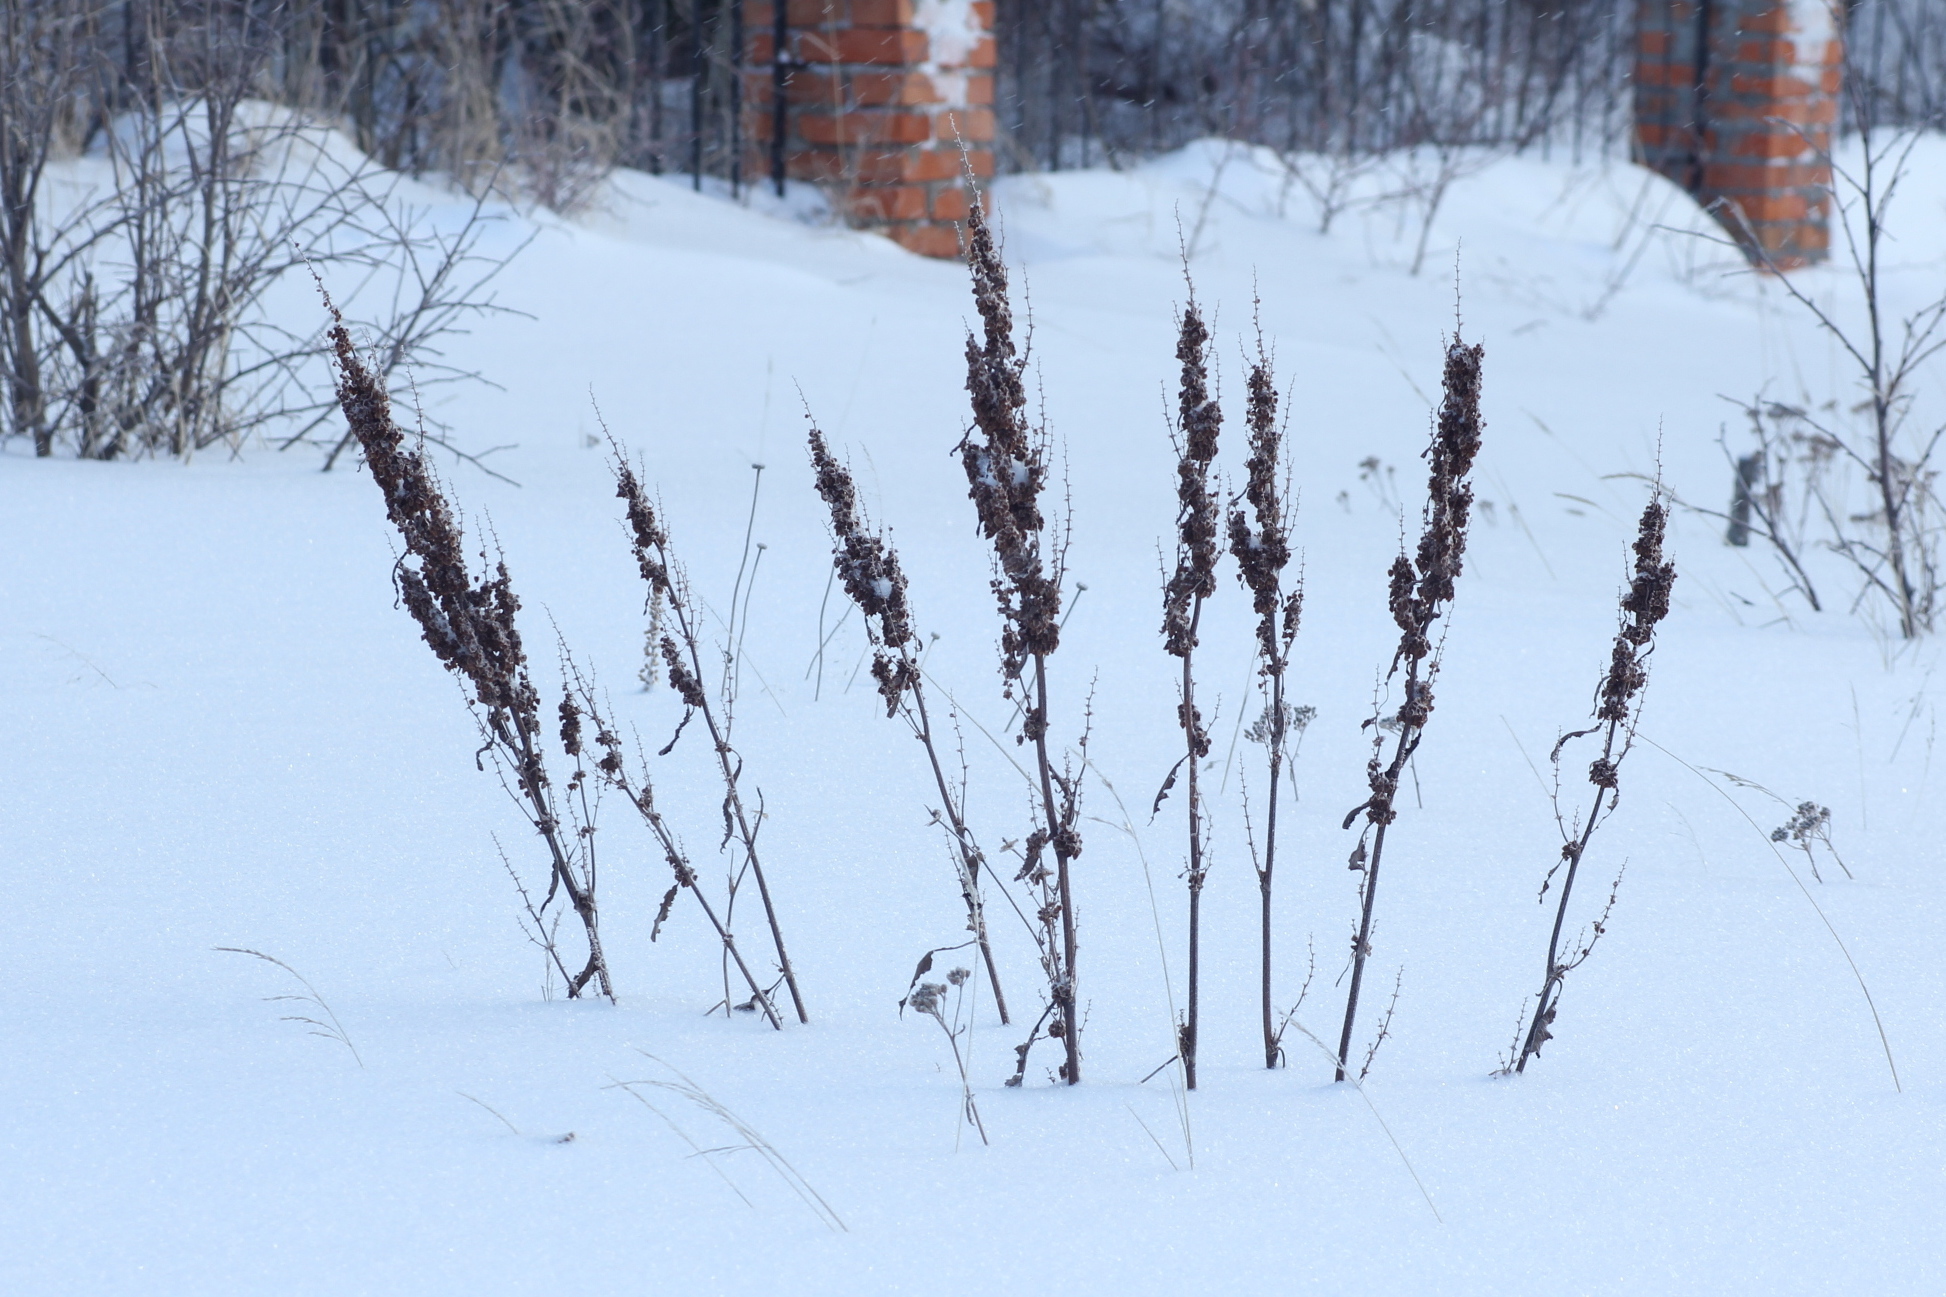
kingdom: Plantae
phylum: Tracheophyta
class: Magnoliopsida
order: Caryophyllales
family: Polygonaceae
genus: Rumex
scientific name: Rumex aquaticus
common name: Scottish dock
